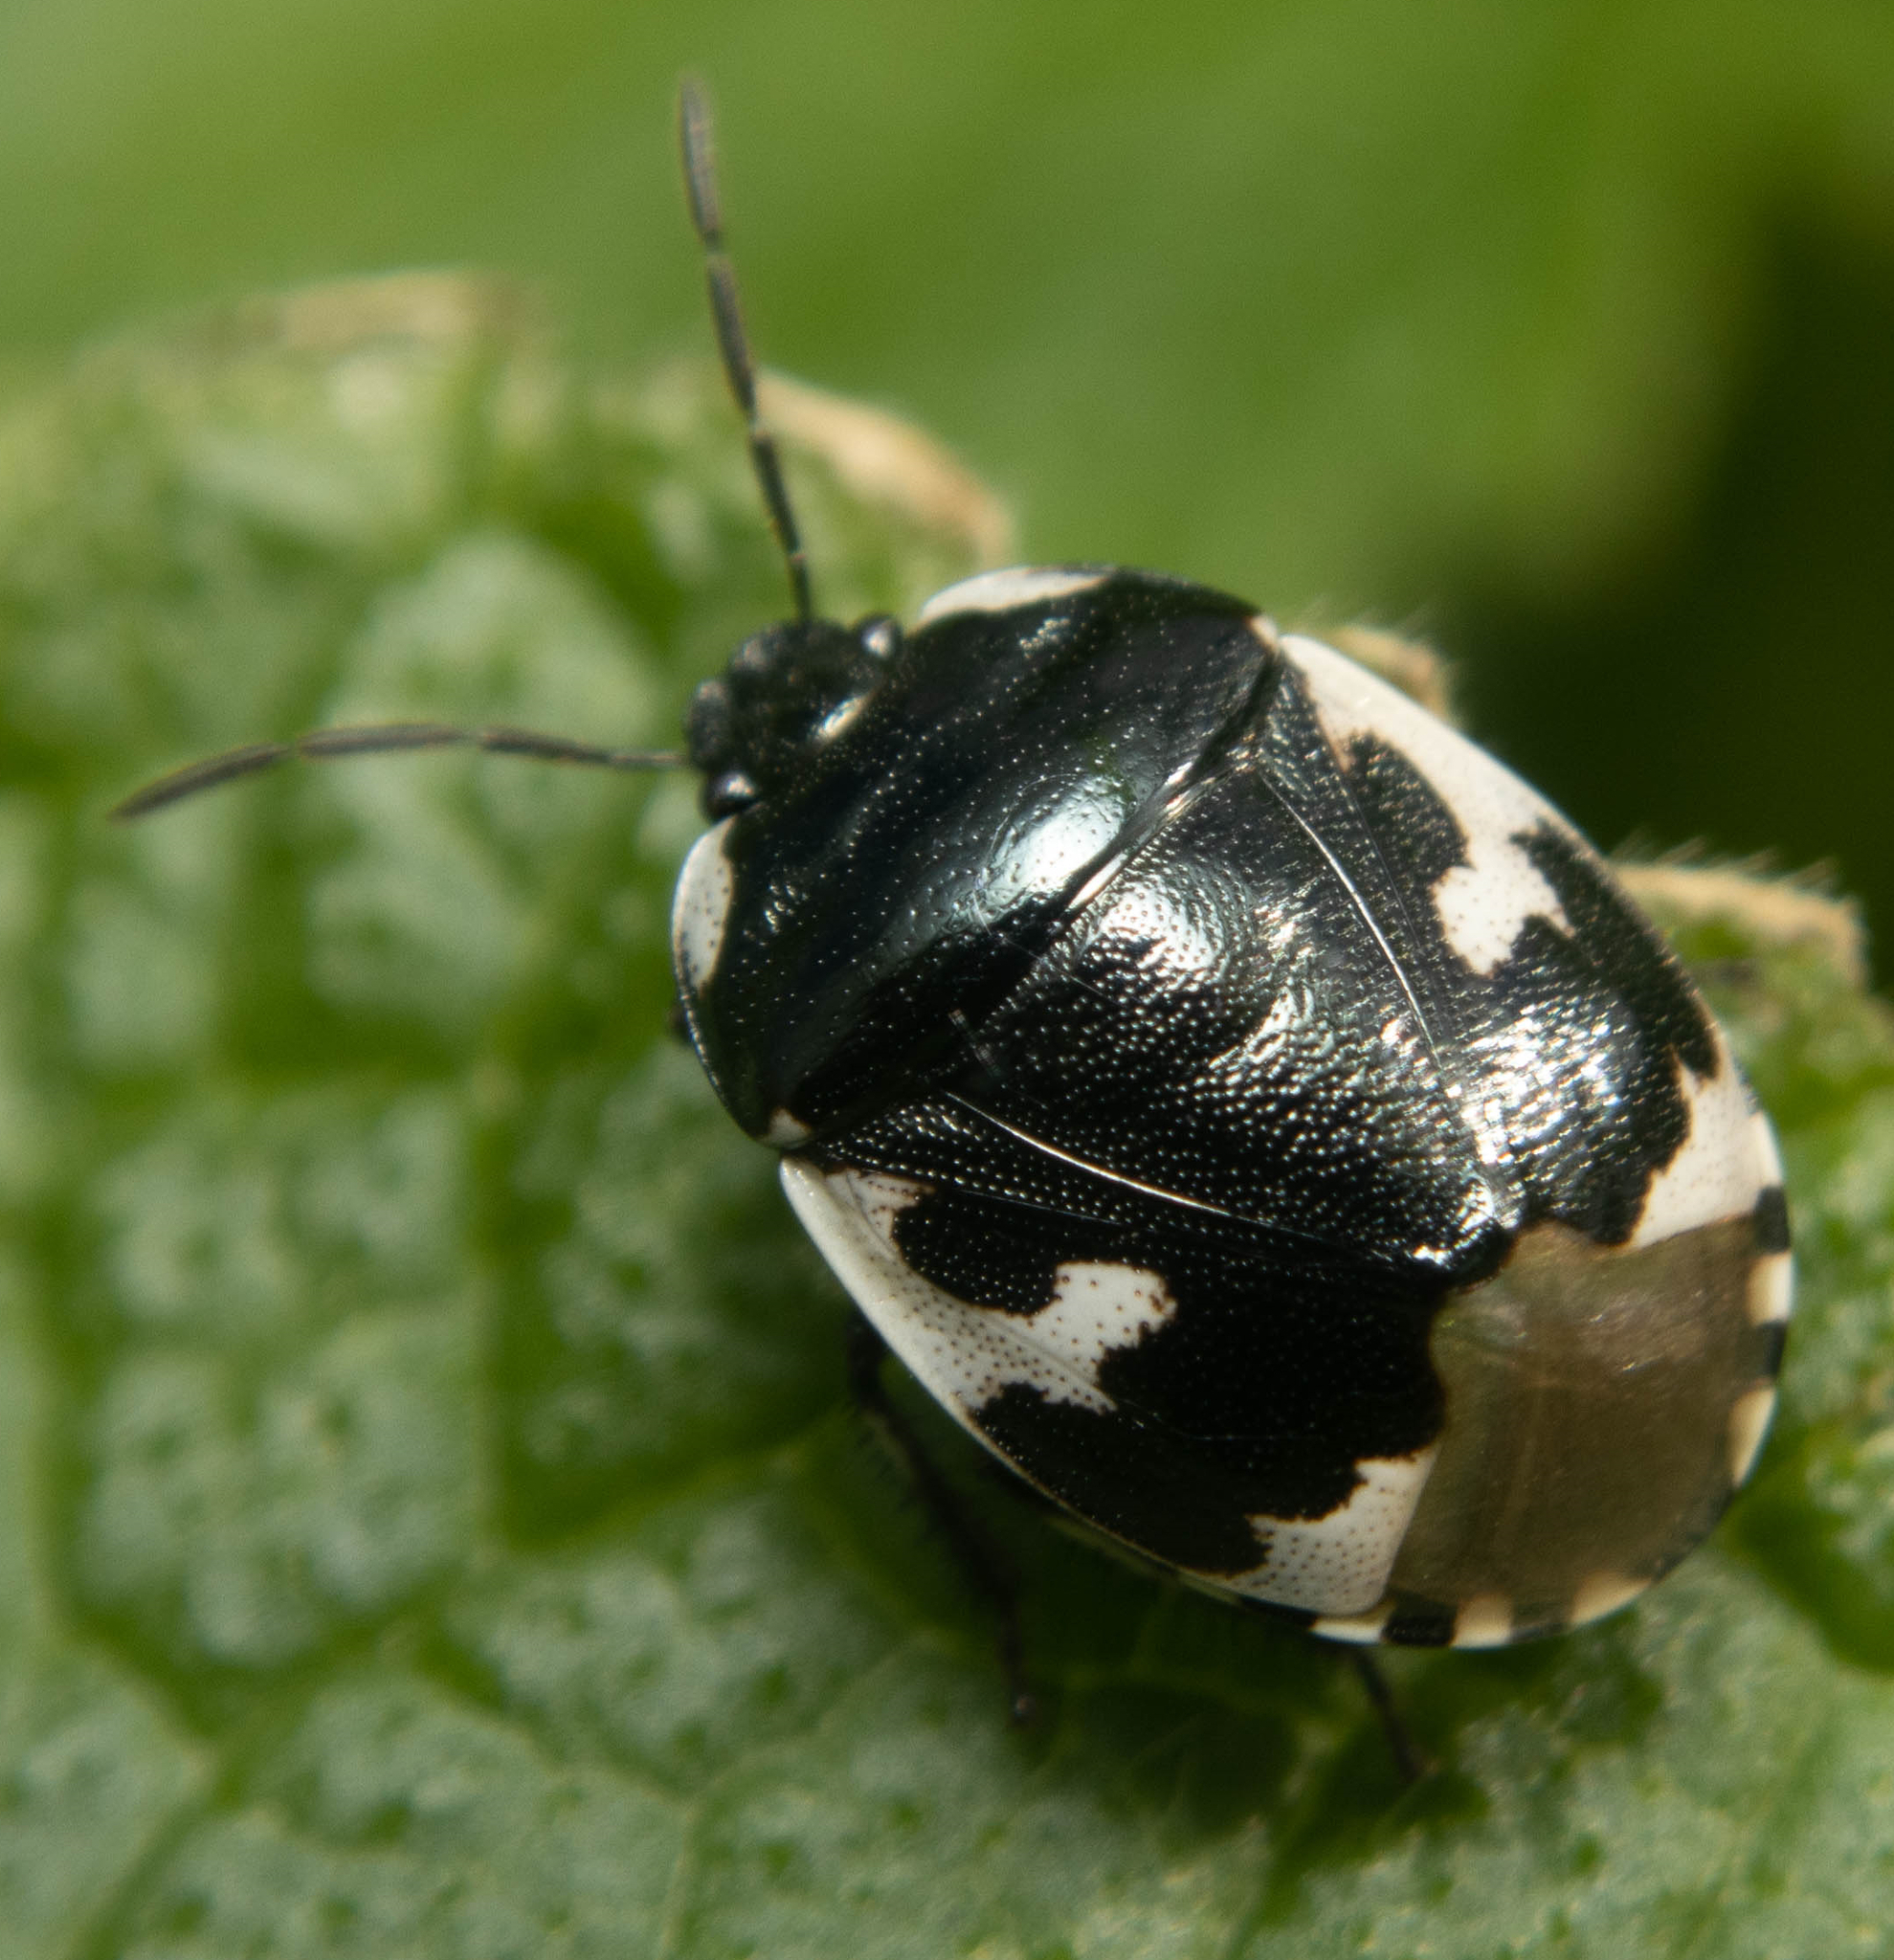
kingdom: Animalia
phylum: Arthropoda
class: Insecta
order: Hemiptera
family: Cydnidae
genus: Tritomegas
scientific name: Tritomegas bicolor
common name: Pied shieldbug
